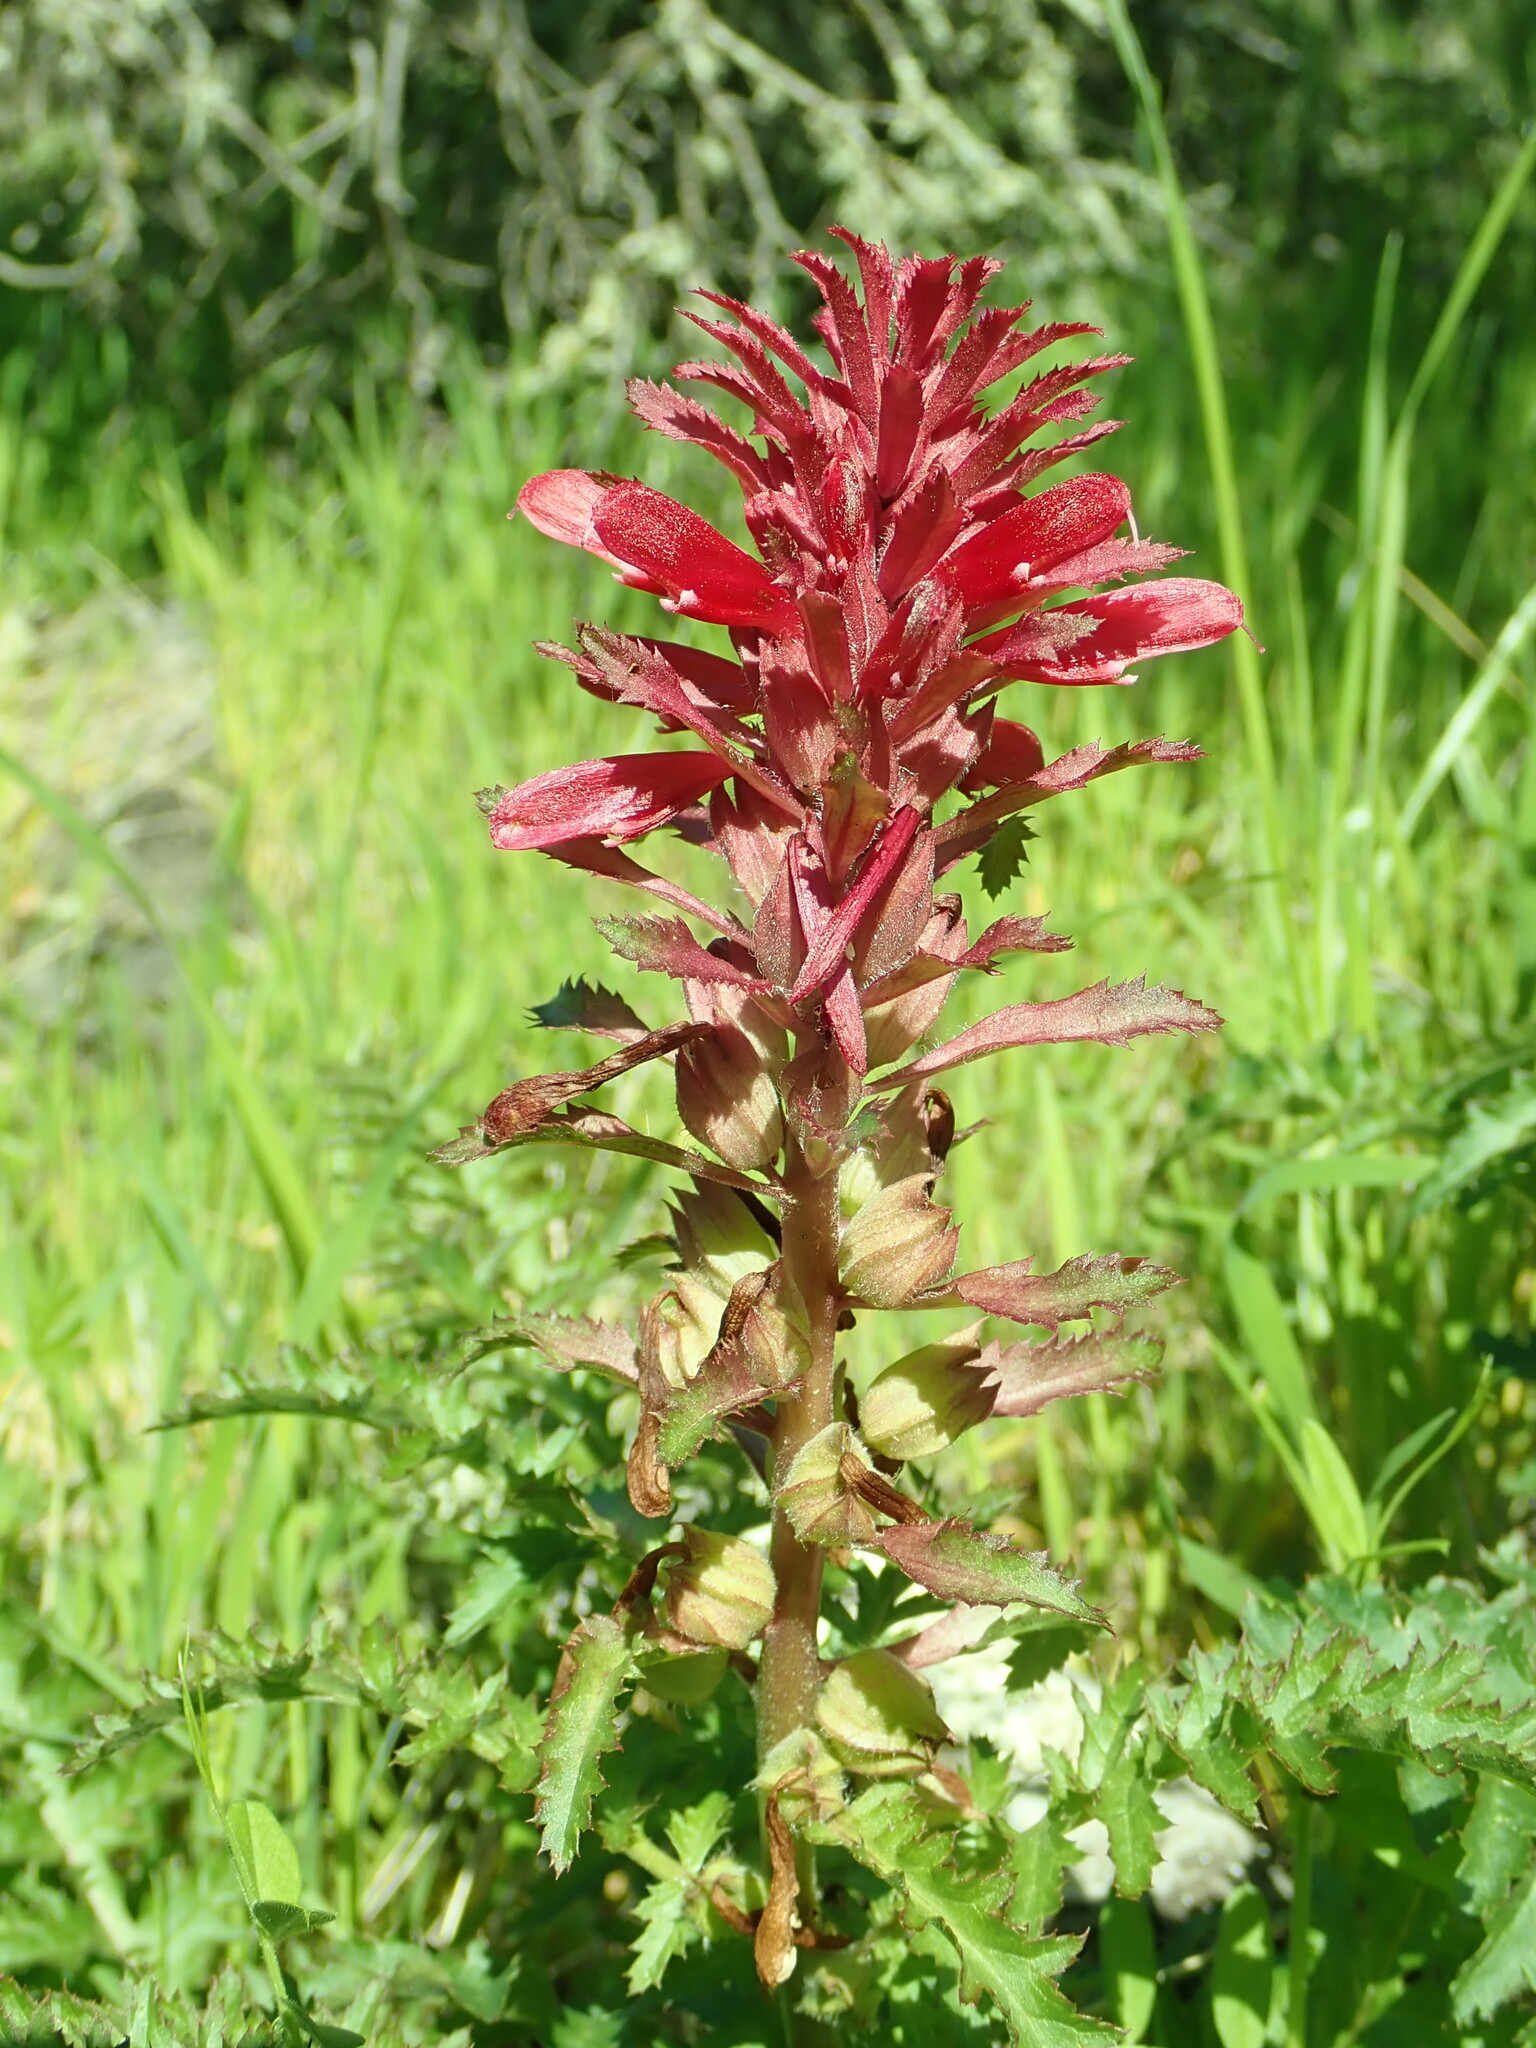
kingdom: Plantae
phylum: Tracheophyta
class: Magnoliopsida
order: Lamiales
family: Orobanchaceae
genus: Pedicularis
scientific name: Pedicularis densiflora
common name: Indian warrior
